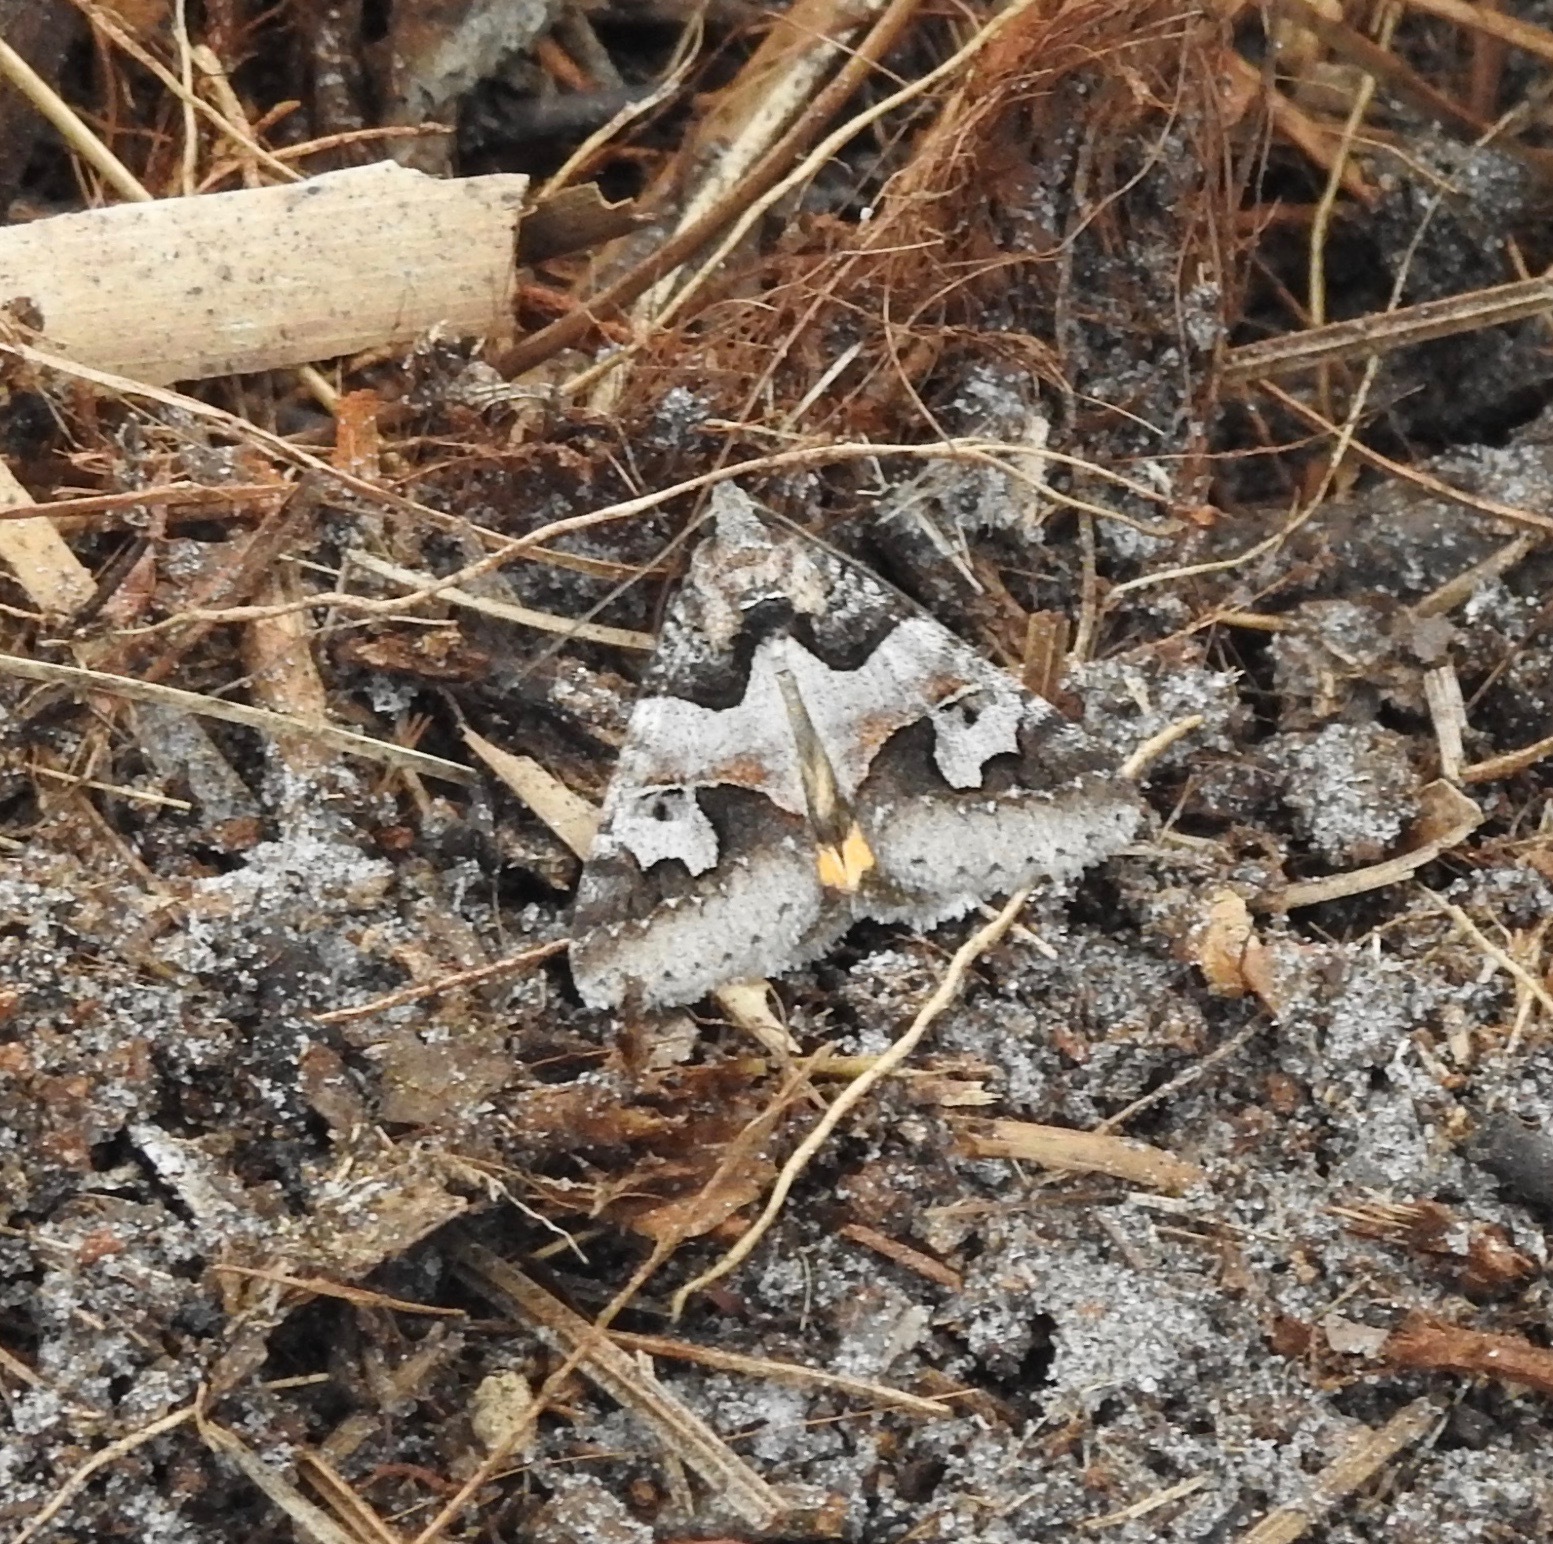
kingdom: Animalia
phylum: Arthropoda
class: Insecta
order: Lepidoptera
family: Erebidae
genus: Drasteria
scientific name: Drasteria graphica
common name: Coastal graphic
